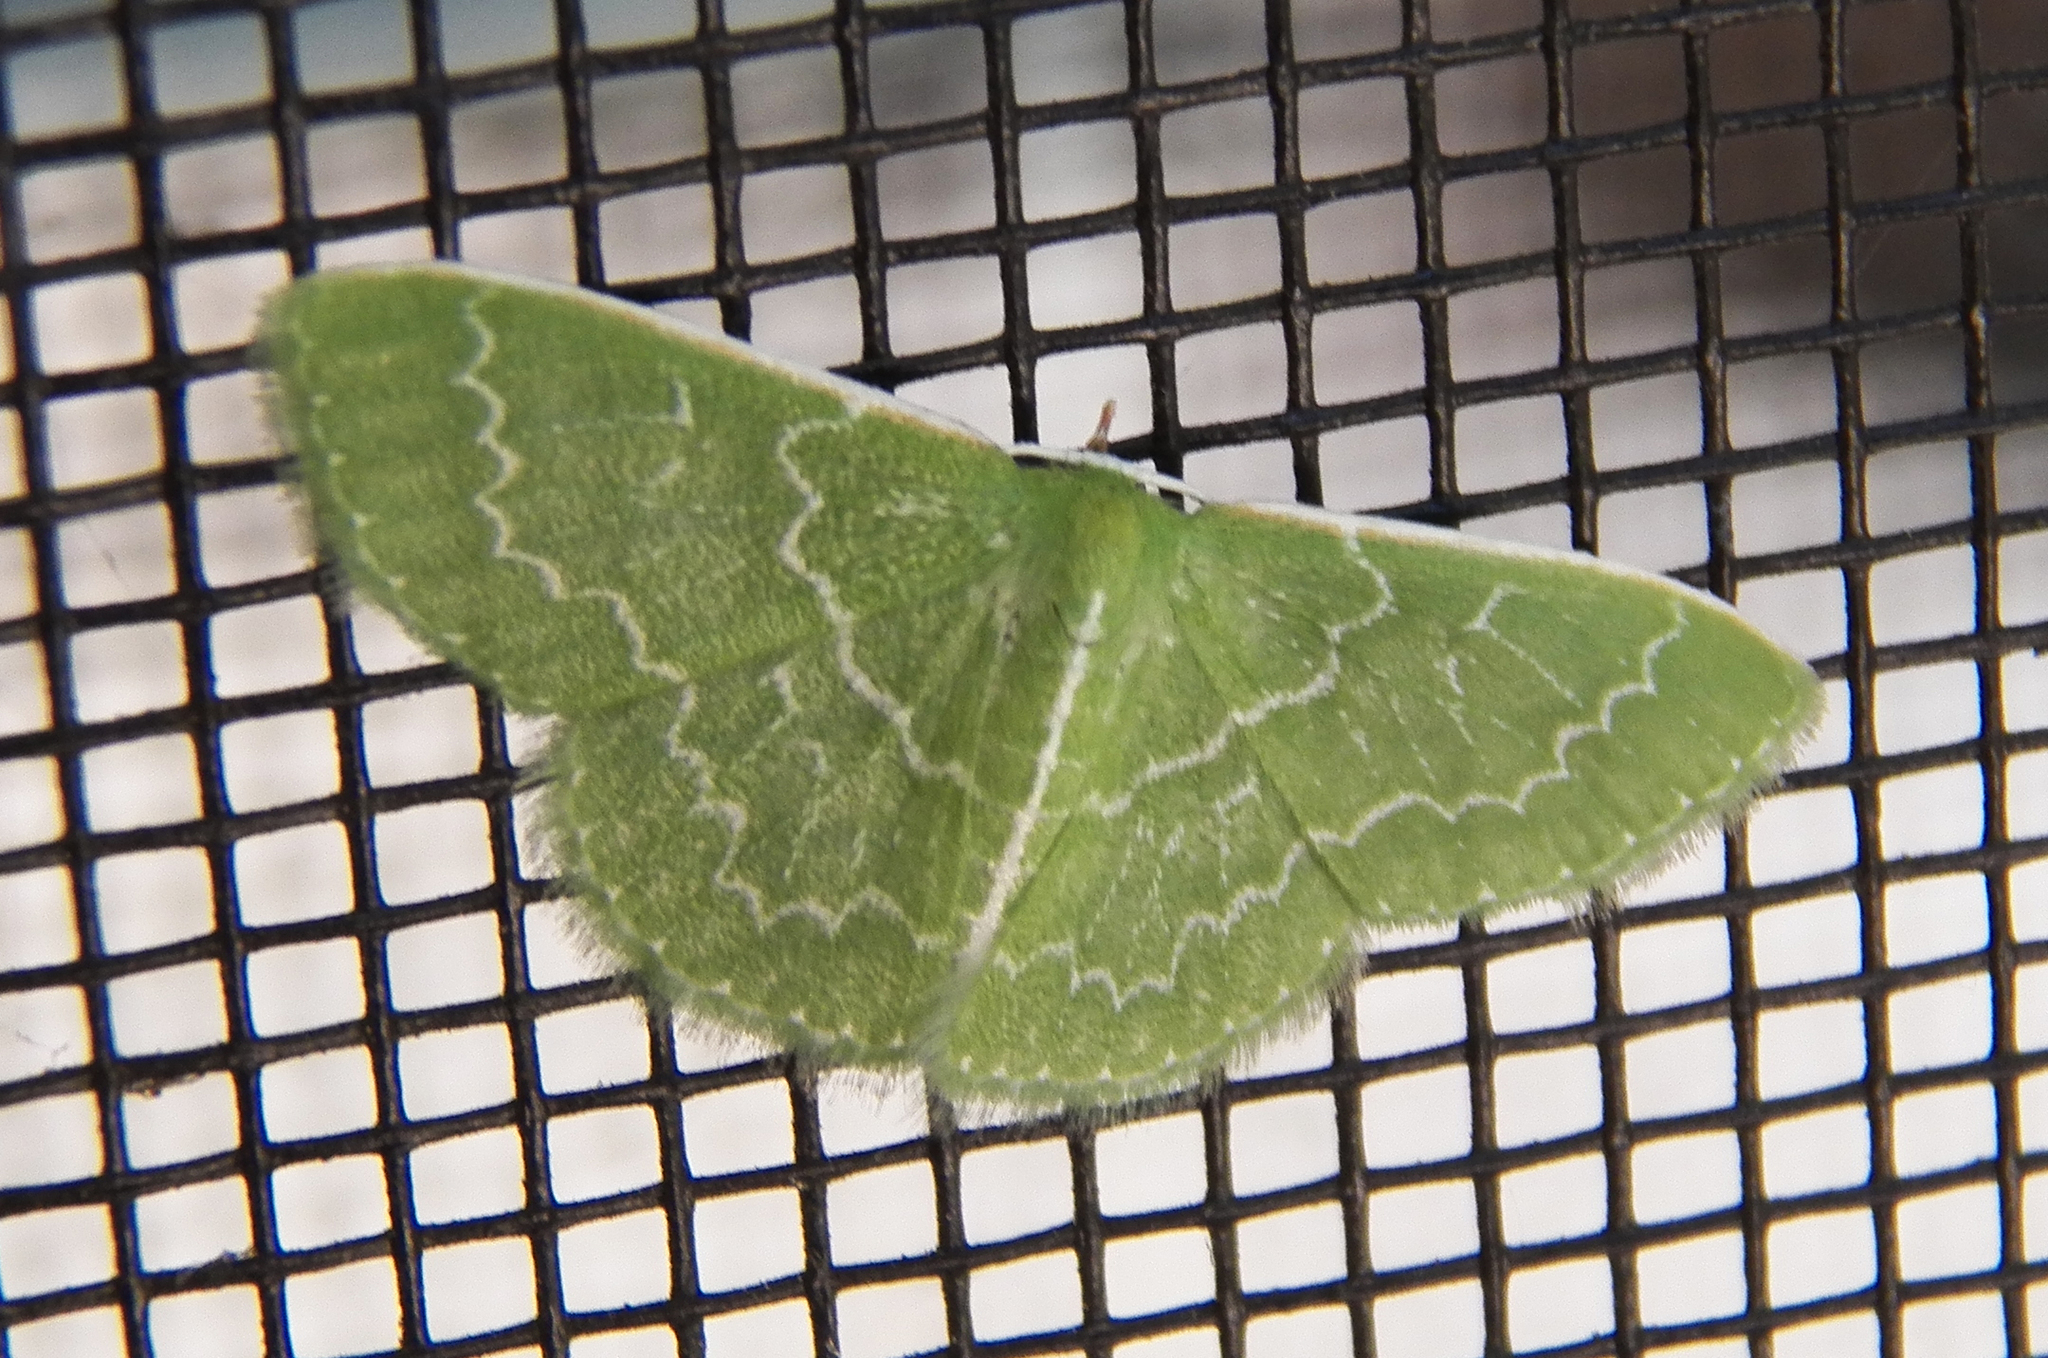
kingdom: Animalia
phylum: Arthropoda
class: Insecta
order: Lepidoptera
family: Geometridae
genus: Synchlora
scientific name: Synchlora frondaria
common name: Southern emerald
